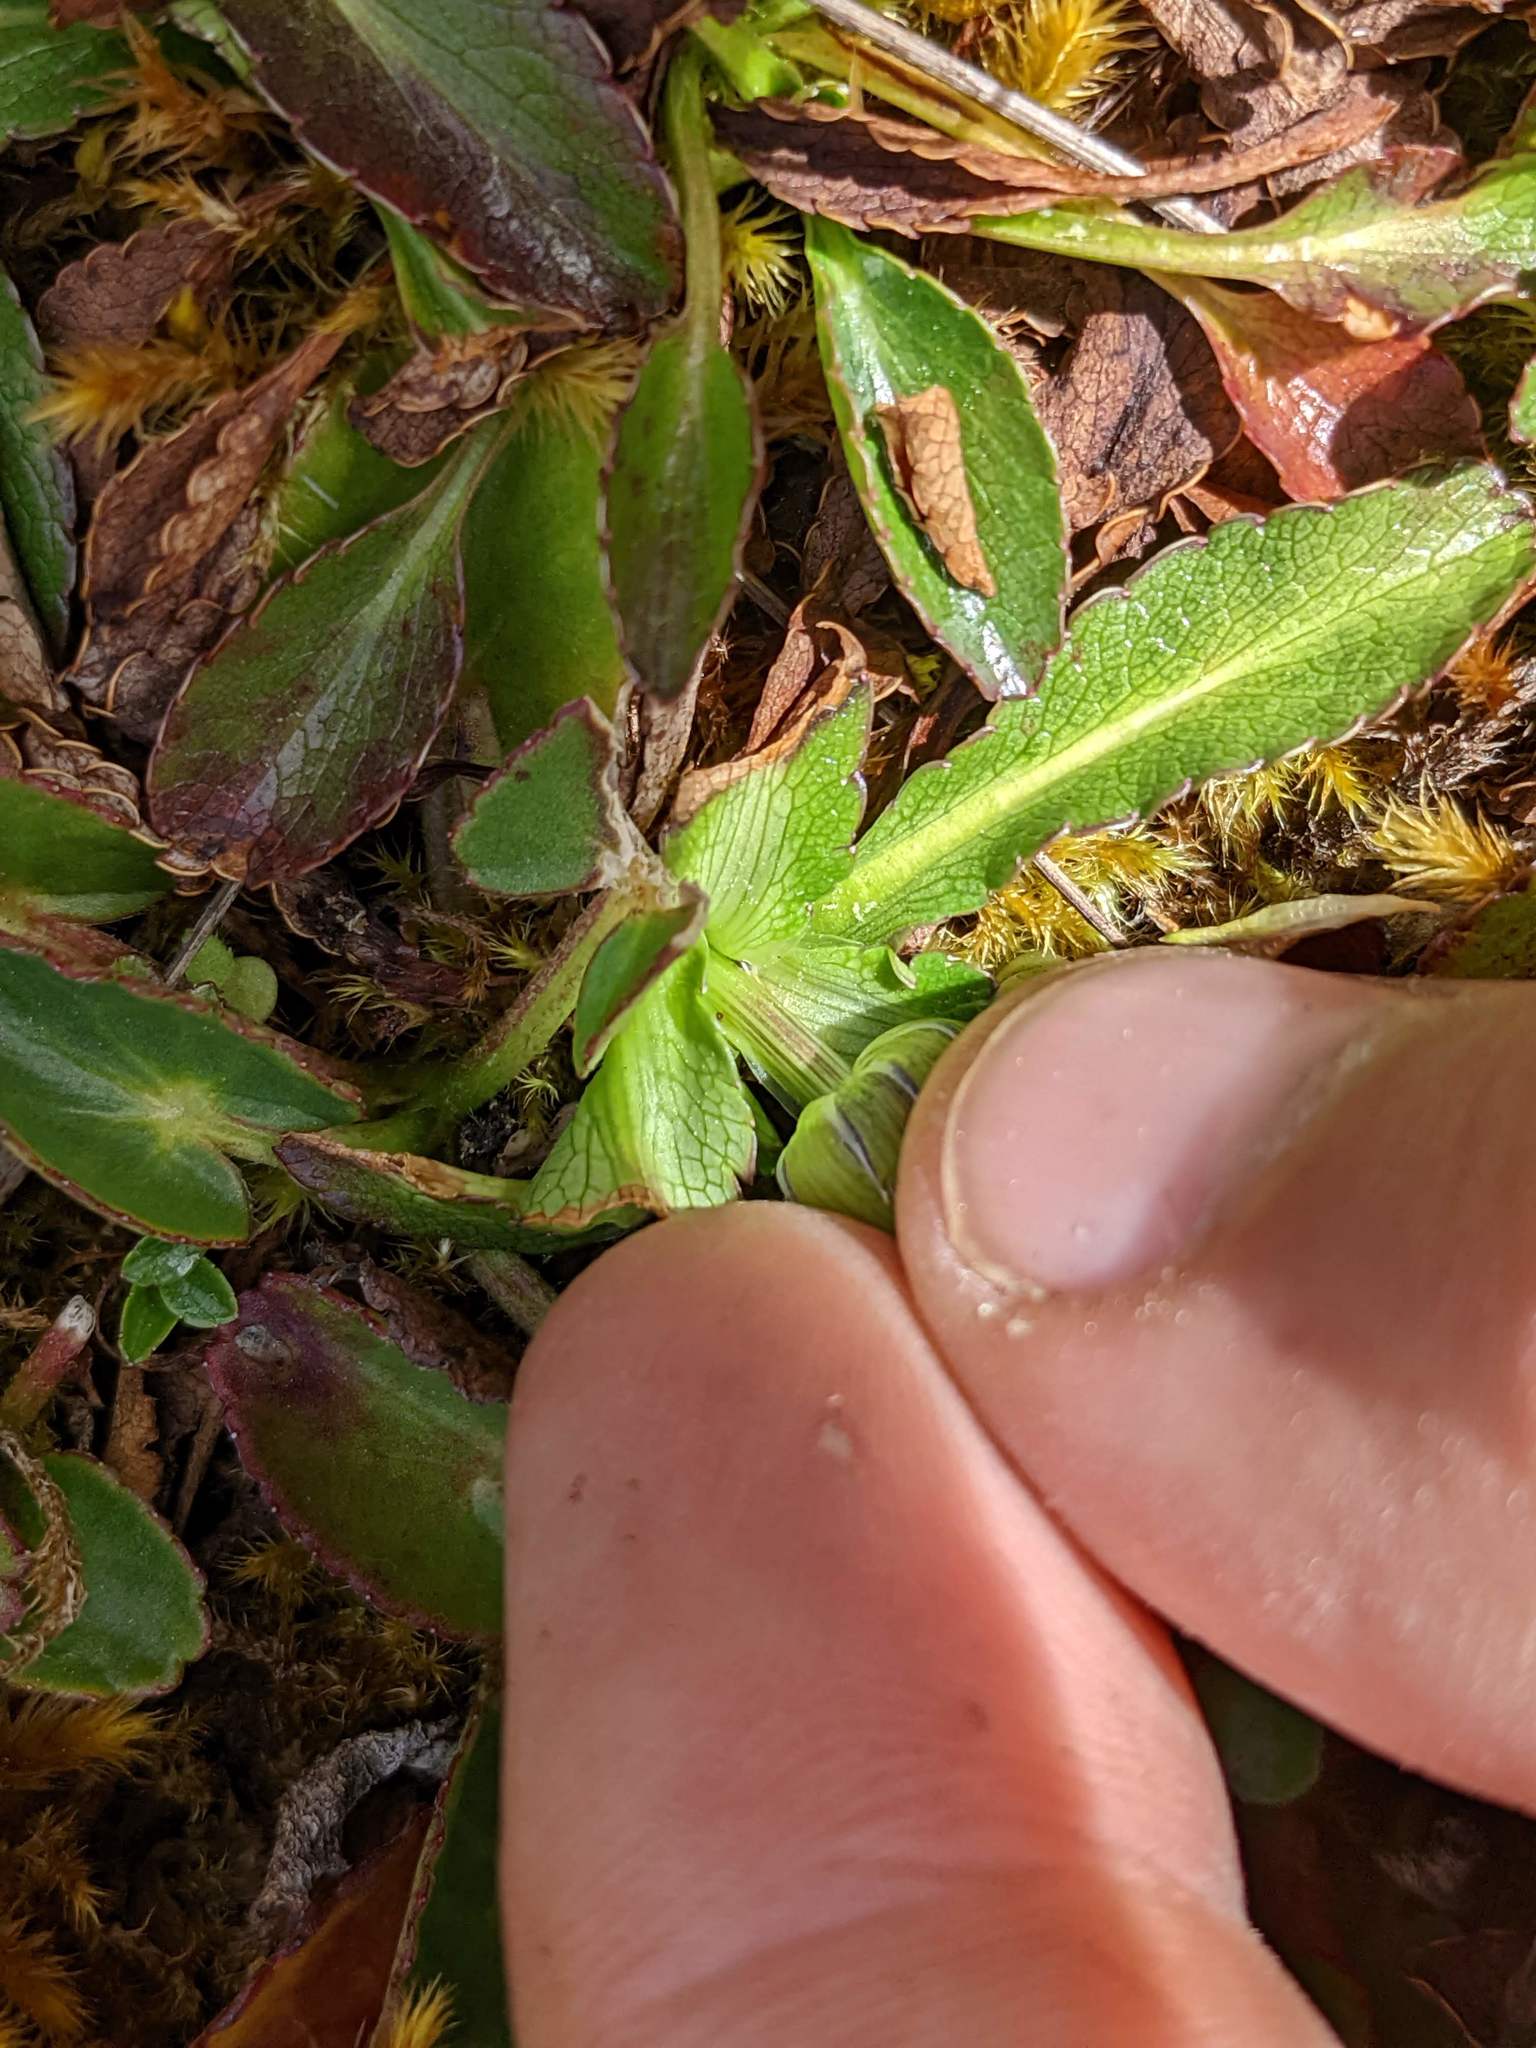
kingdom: Plantae
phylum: Tracheophyta
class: Magnoliopsida
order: Apiales
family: Apiaceae
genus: Eryngium
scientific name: Eryngium humile
